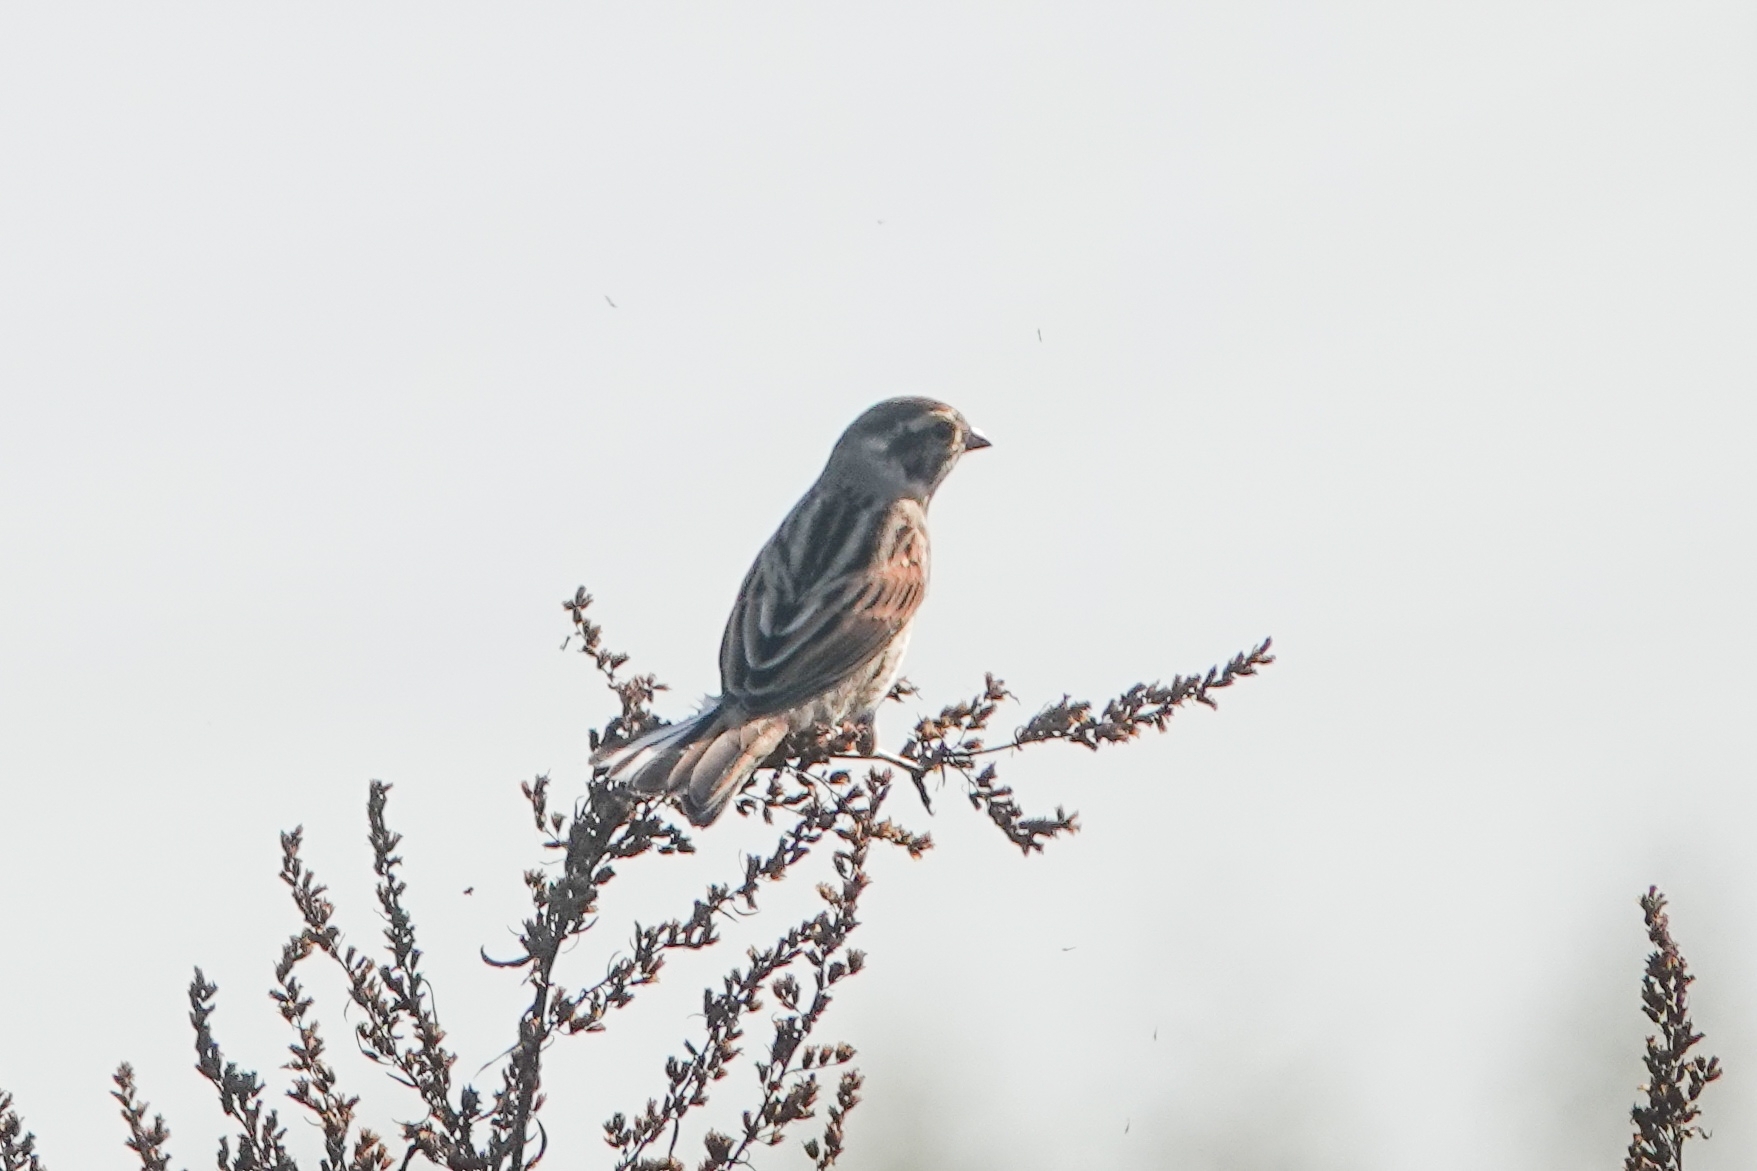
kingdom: Animalia
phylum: Chordata
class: Aves
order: Passeriformes
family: Emberizidae
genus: Emberiza
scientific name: Emberiza schoeniclus
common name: Reed bunting
